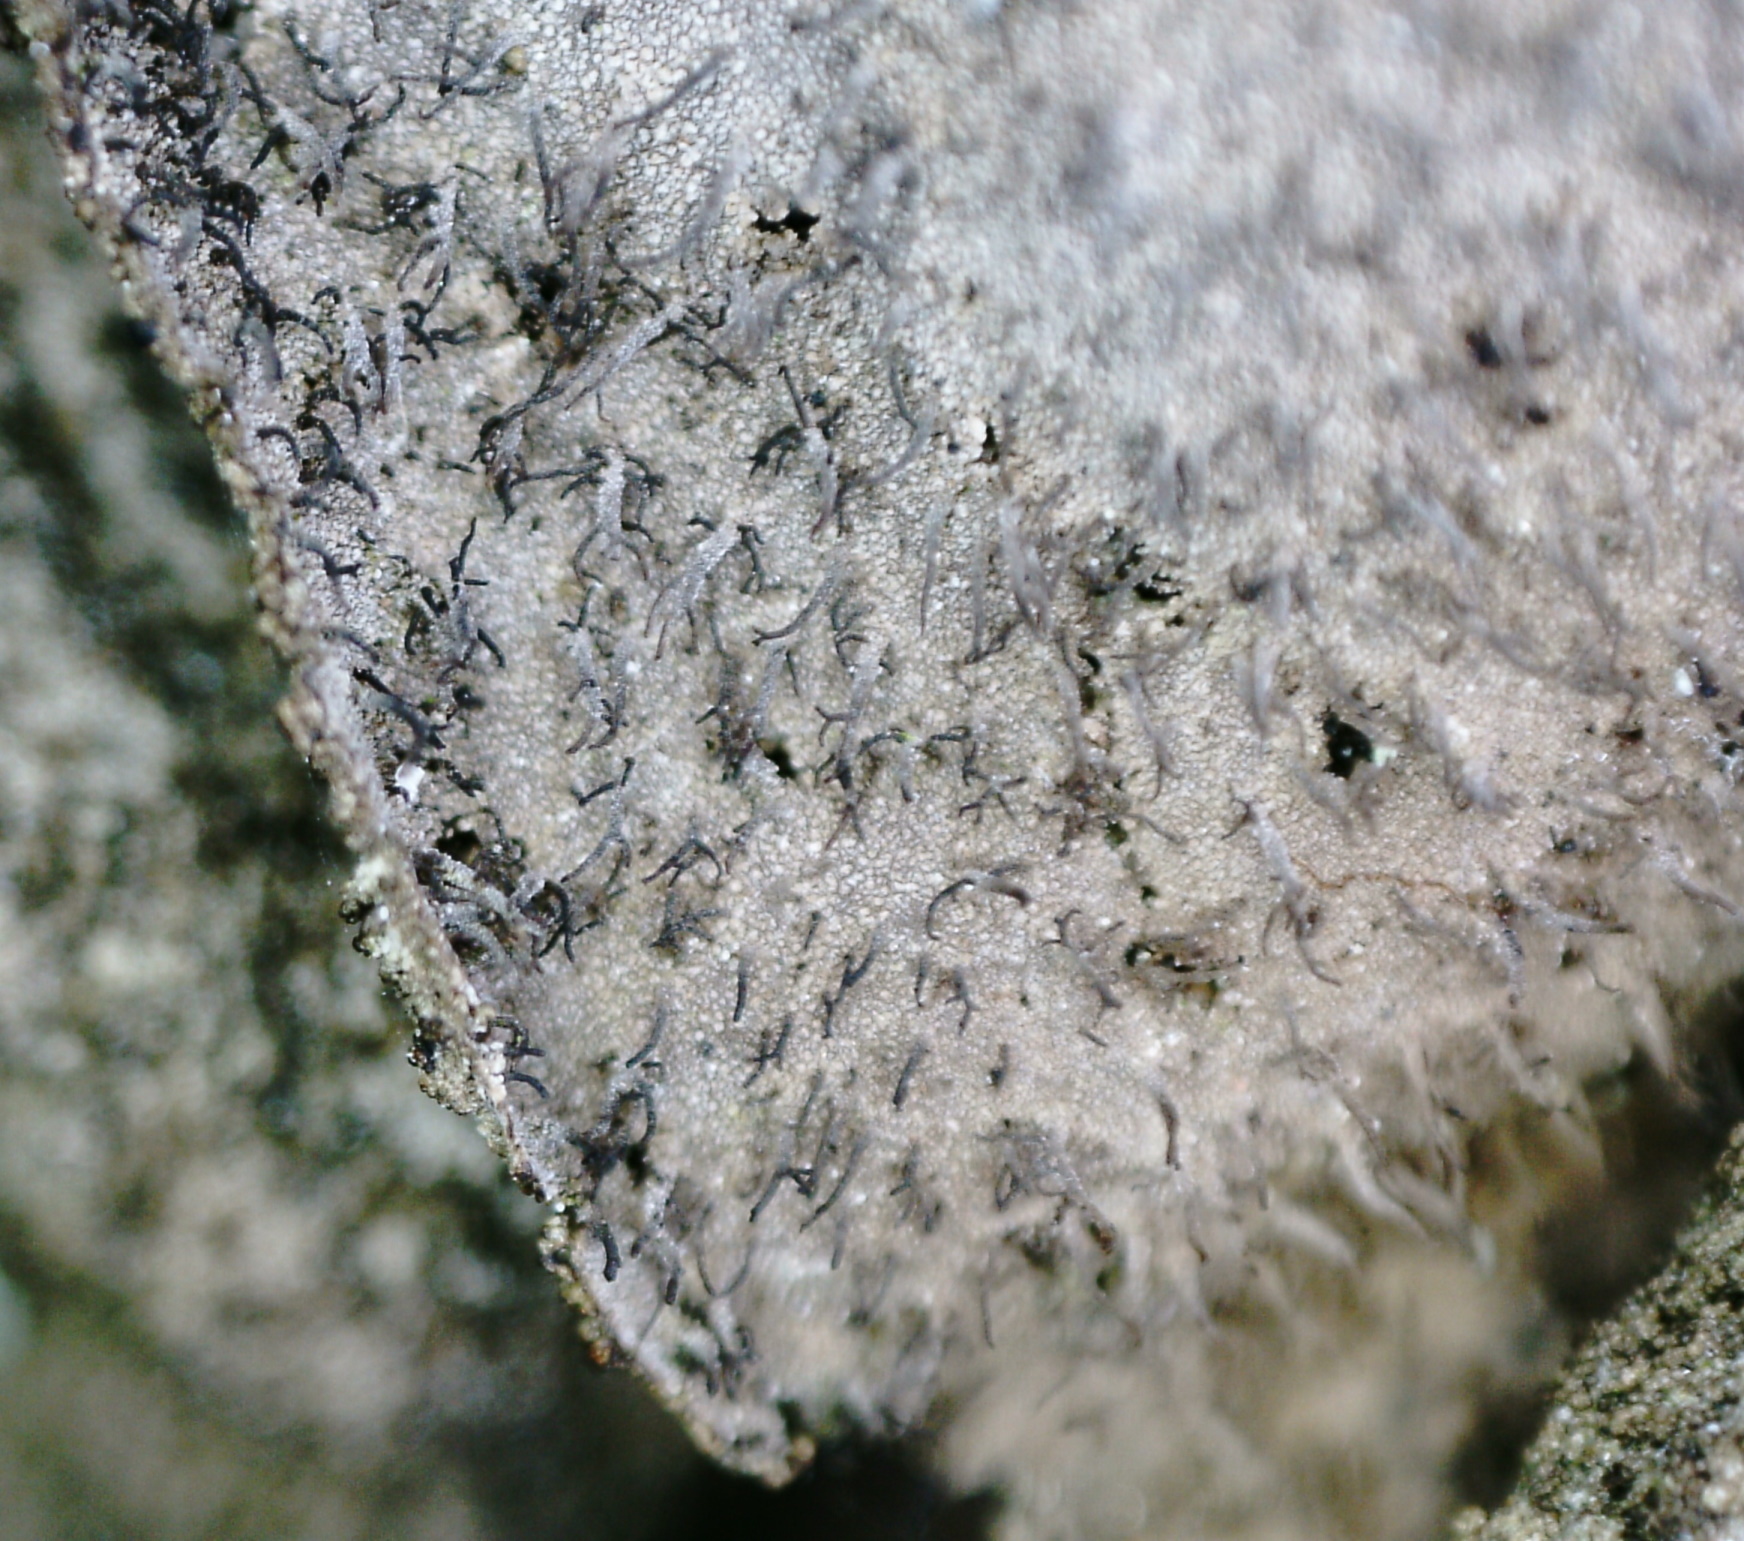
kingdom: Fungi
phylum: Ascomycota
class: Lecanoromycetes
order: Umbilicariales
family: Umbilicariaceae
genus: Umbilicaria
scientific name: Umbilicaria hirsuta
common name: Granulating rocktripe lichen
